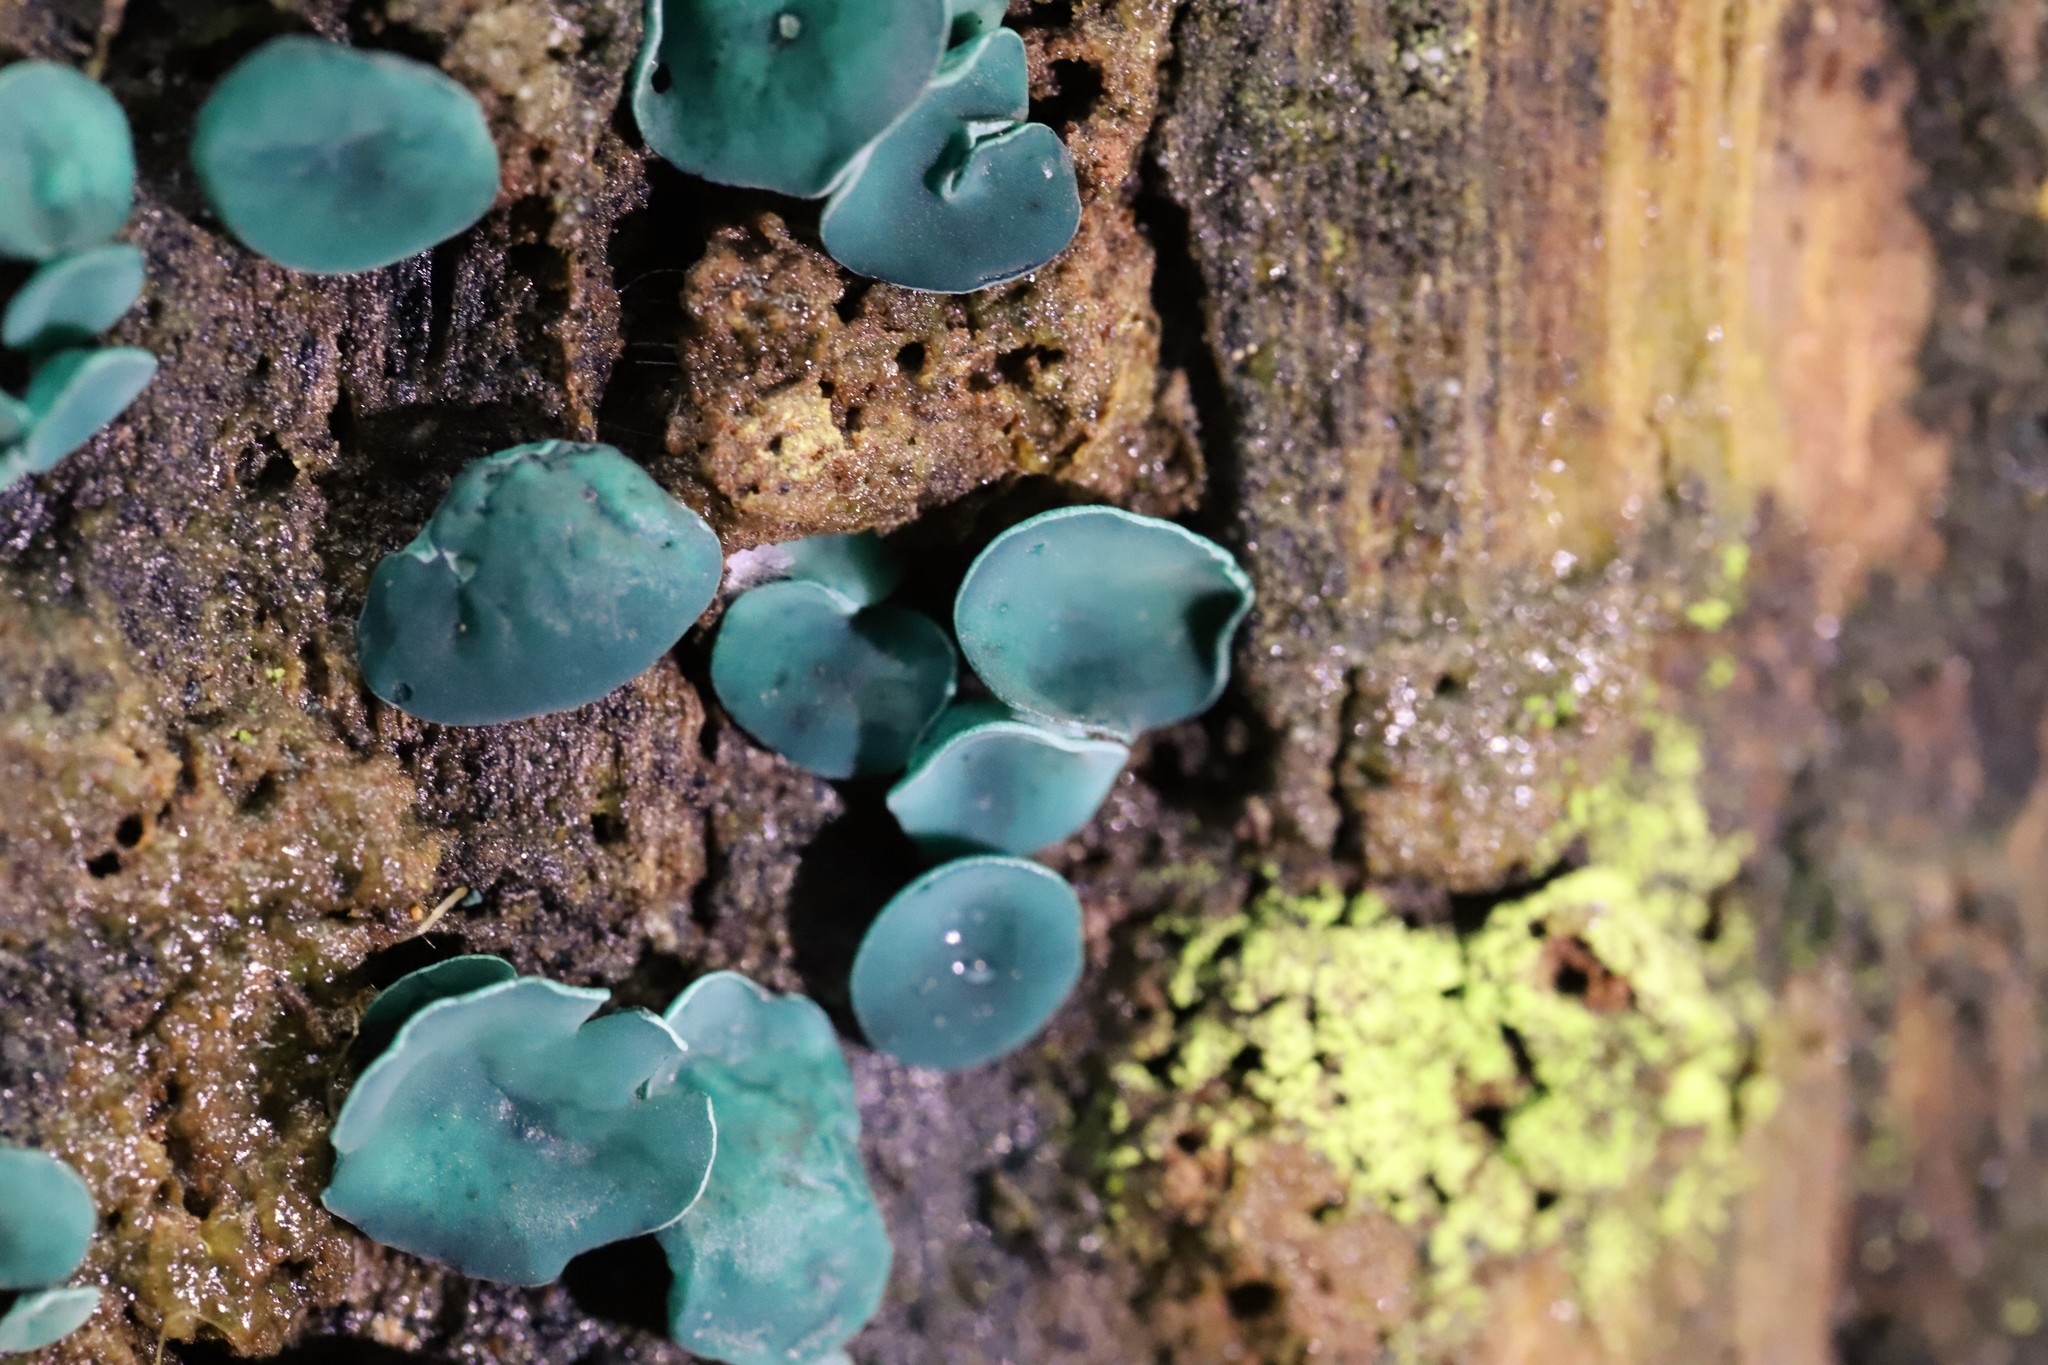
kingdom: Fungi
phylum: Ascomycota
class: Leotiomycetes
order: Helotiales
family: Chlorociboriaceae
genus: Chlorociboria
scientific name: Chlorociboria
